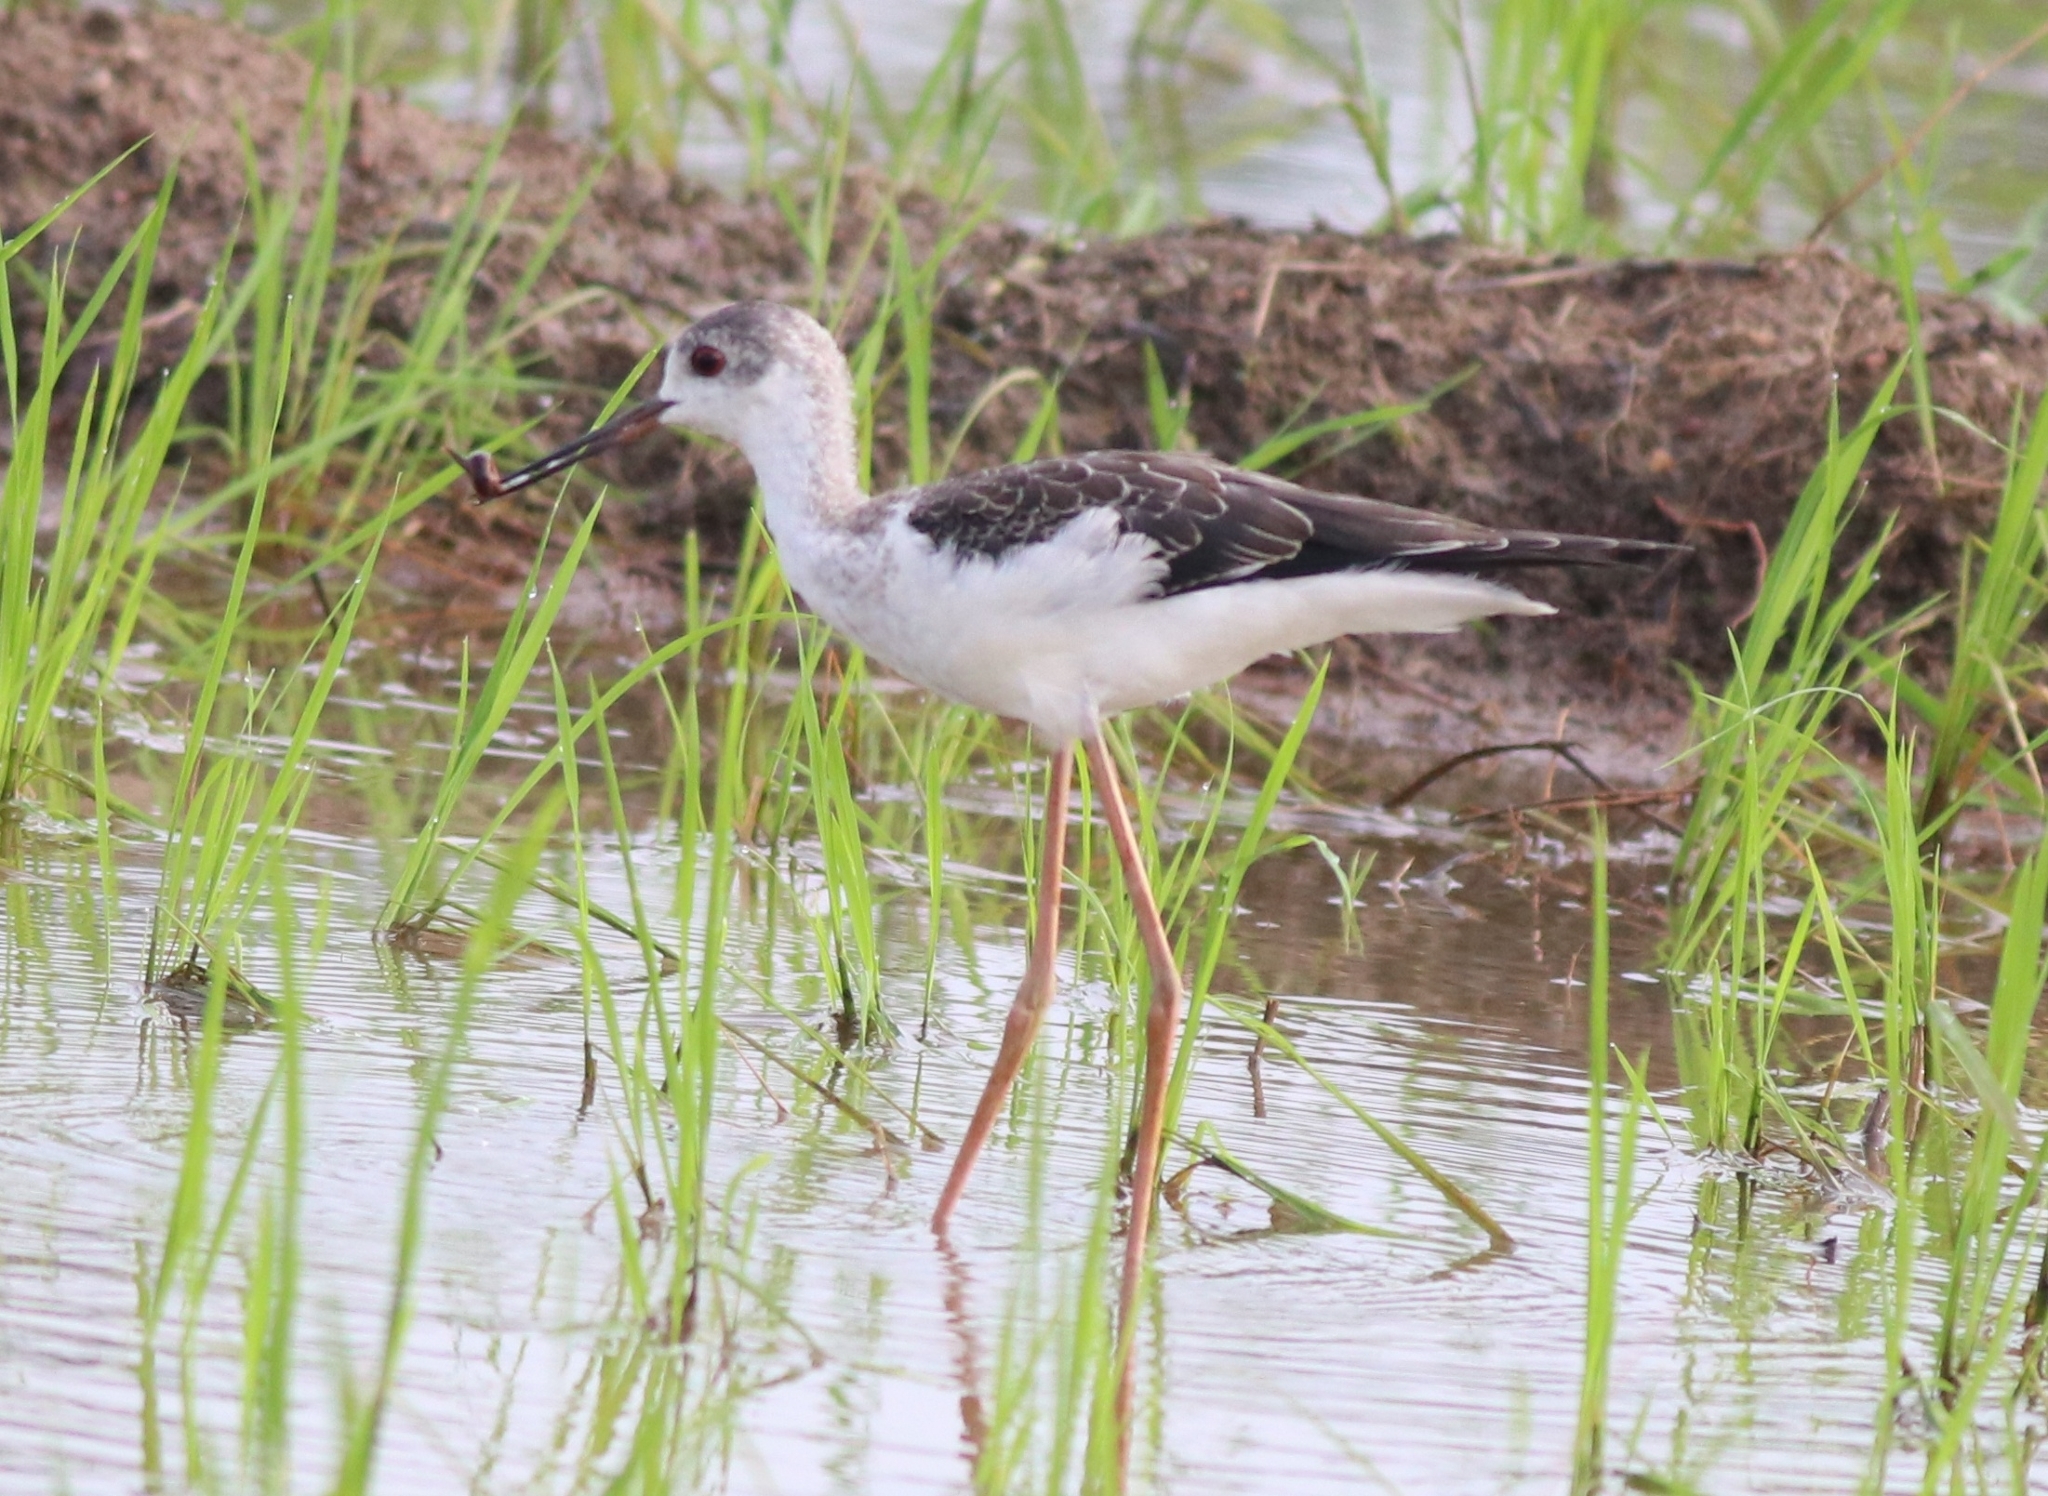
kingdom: Animalia
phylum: Chordata
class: Aves
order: Charadriiformes
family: Recurvirostridae
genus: Himantopus
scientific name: Himantopus himantopus
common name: Black-winged stilt
